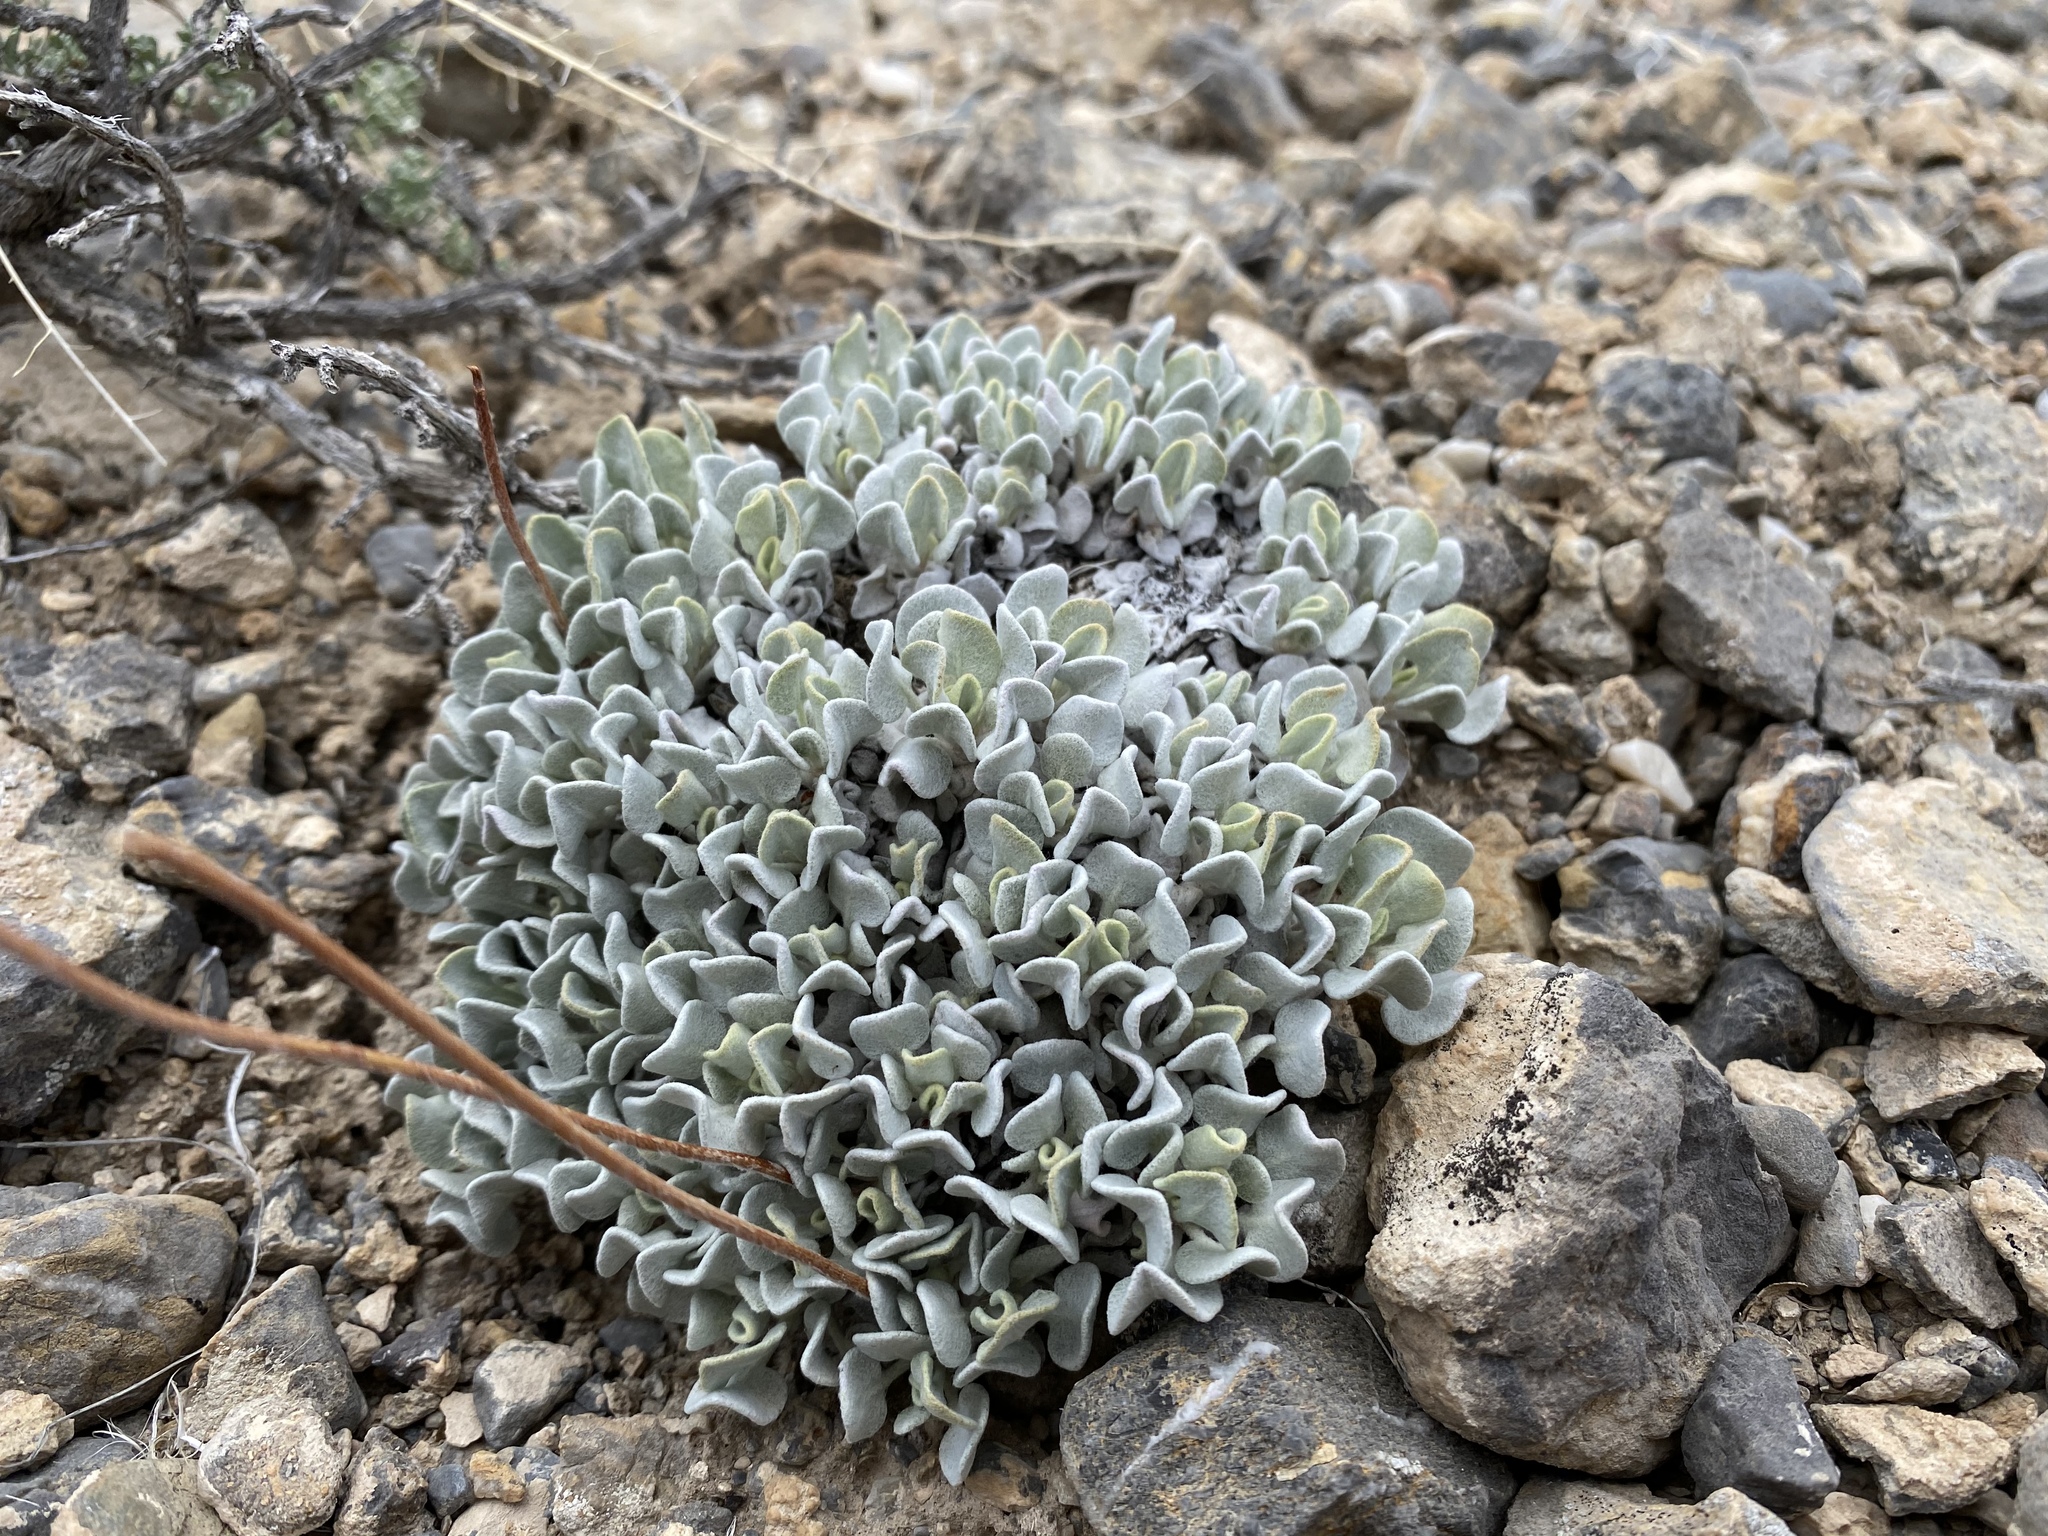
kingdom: Plantae
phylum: Tracheophyta
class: Magnoliopsida
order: Caryophyllales
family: Polygonaceae
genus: Eriogonum
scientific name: Eriogonum ovalifolium
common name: Cushion buckwheat
